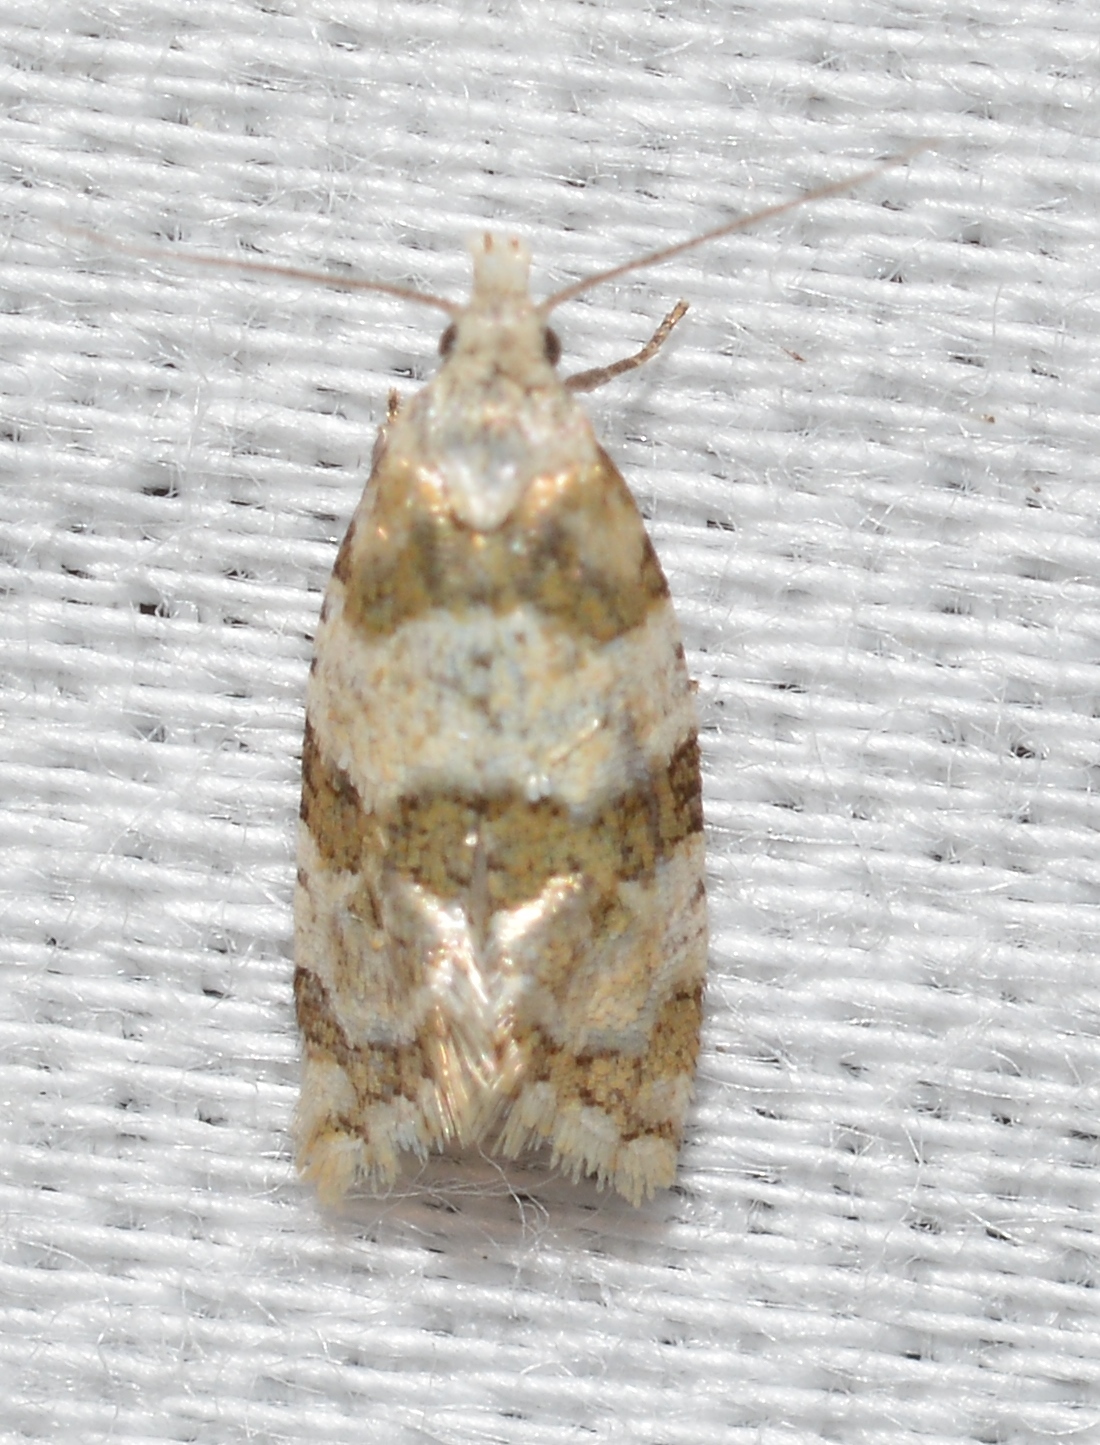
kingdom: Animalia
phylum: Arthropoda
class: Insecta
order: Lepidoptera
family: Tortricidae
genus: Aethes
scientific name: Aethes argentilimitana
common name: Silver-bordered aethes
